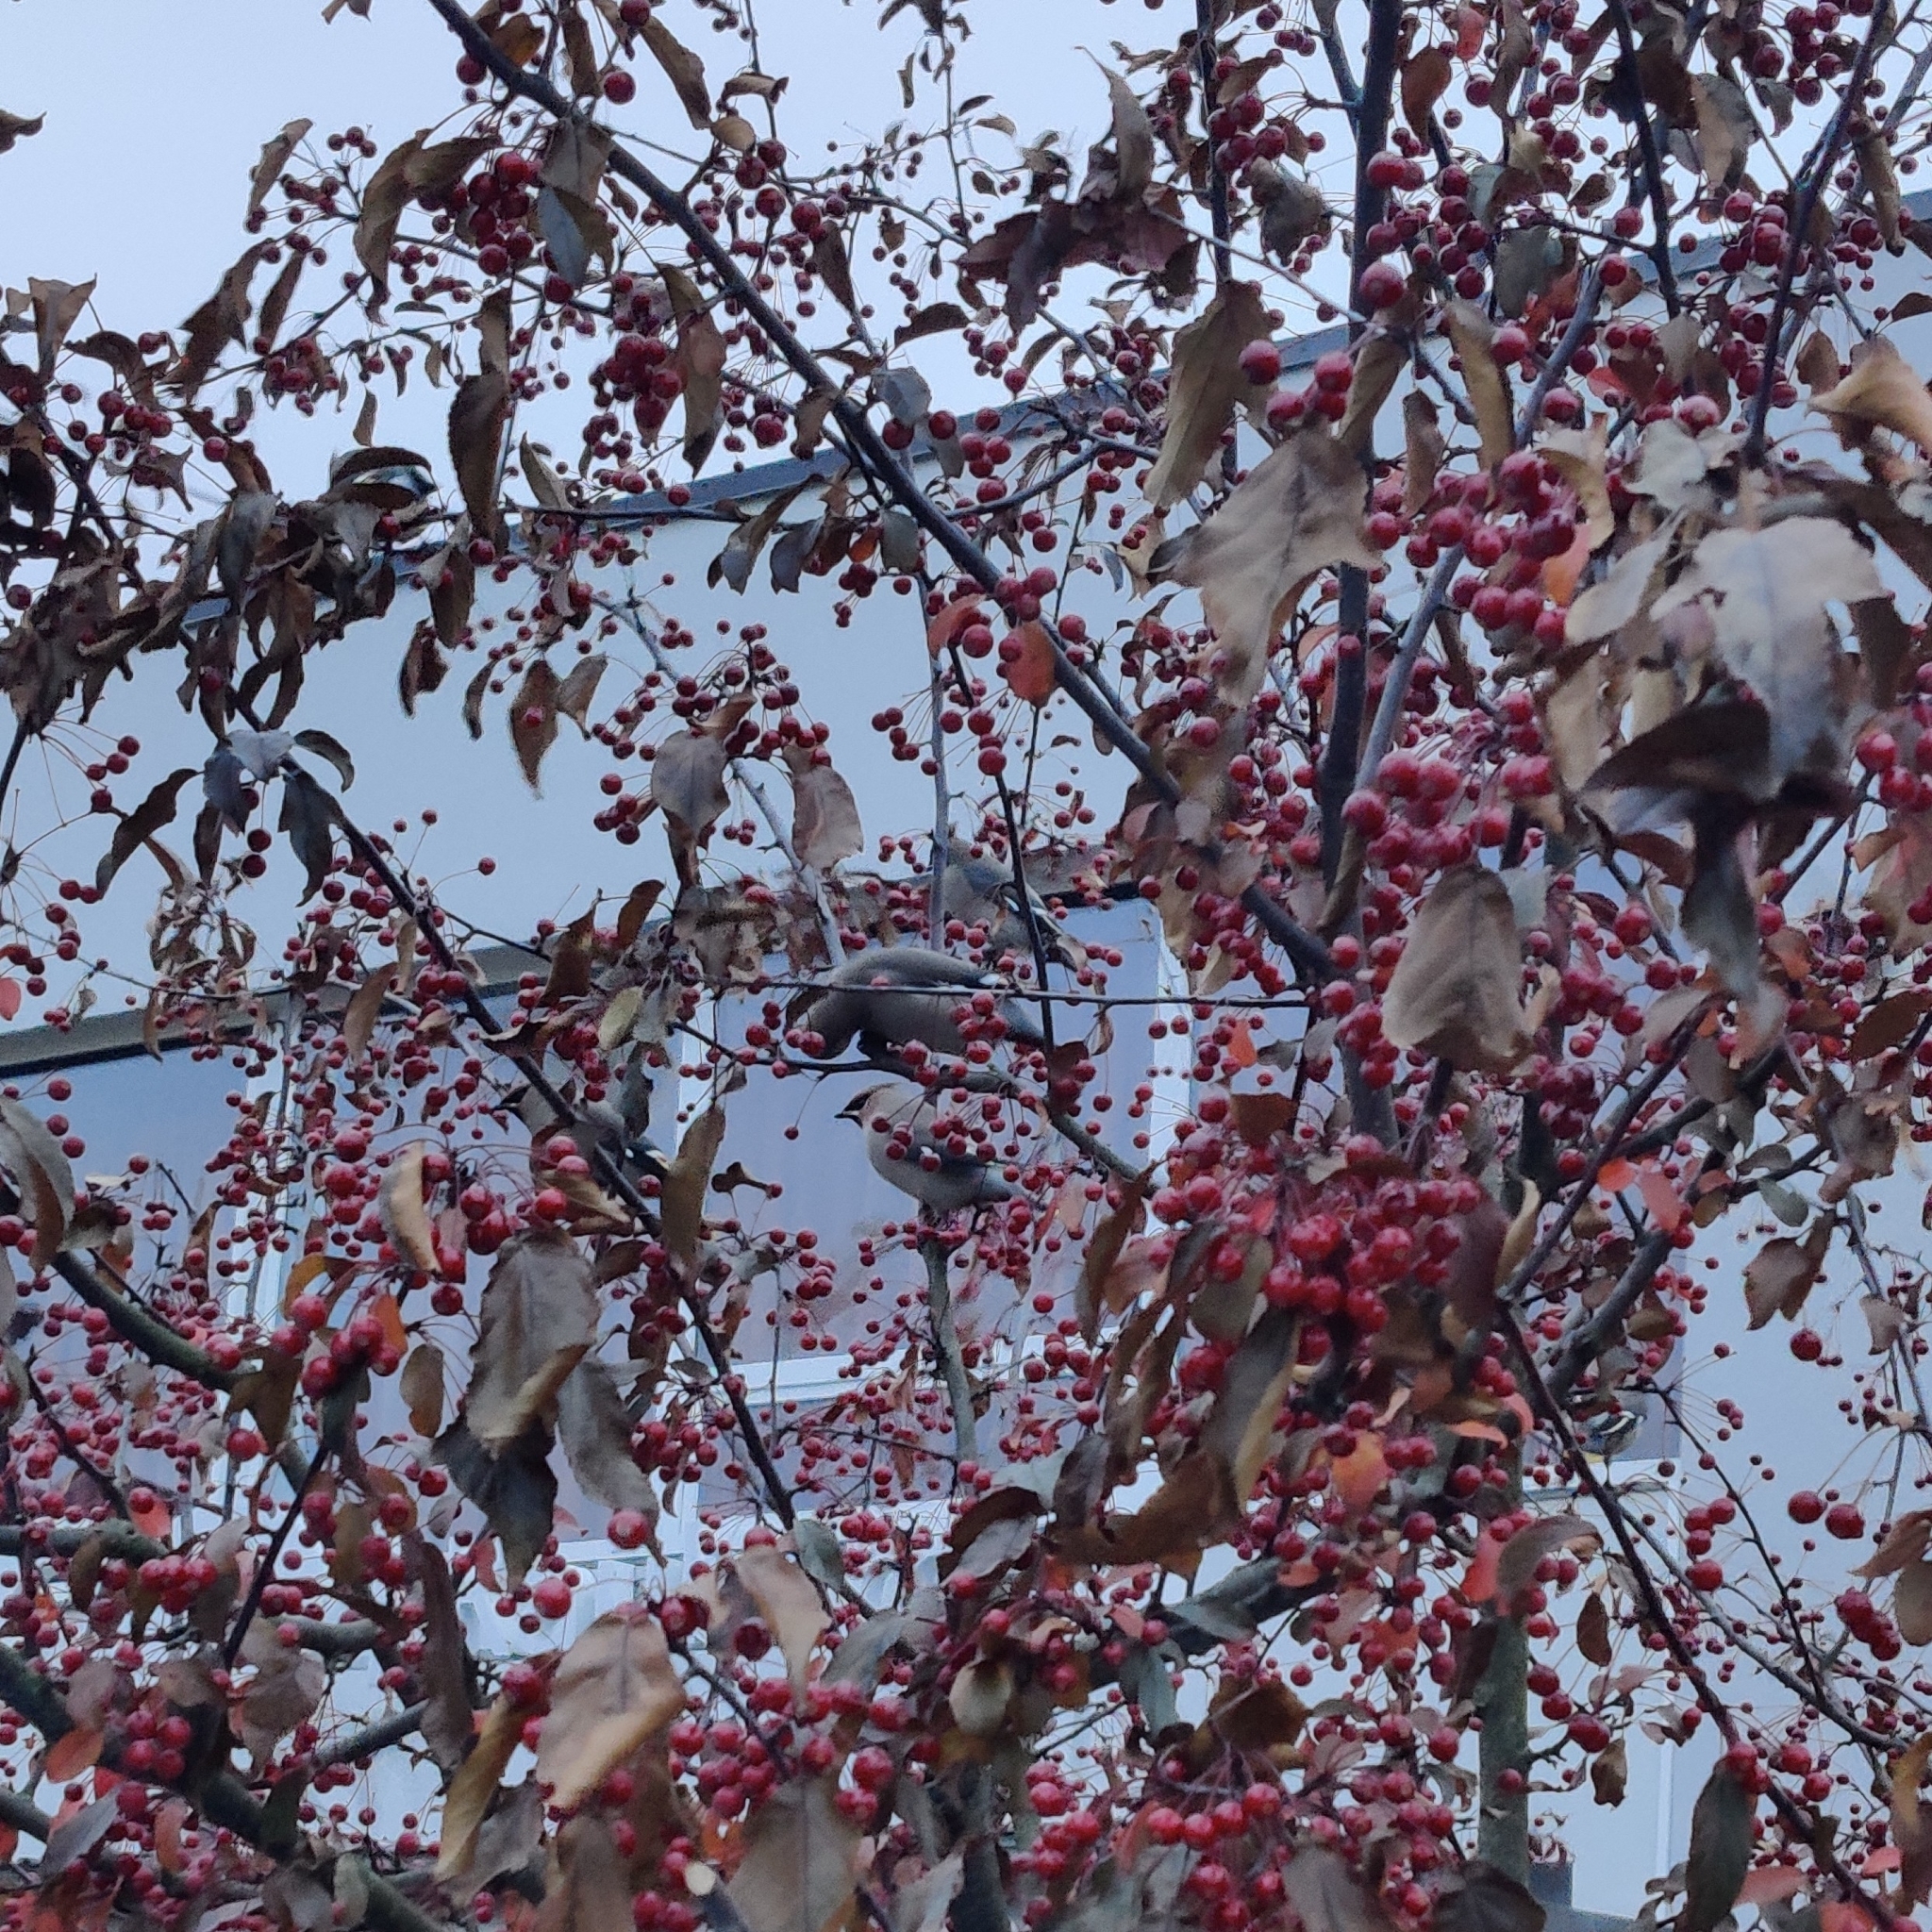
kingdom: Animalia
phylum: Chordata
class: Aves
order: Passeriformes
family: Bombycillidae
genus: Bombycilla
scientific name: Bombycilla garrulus
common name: Bohemian waxwing
